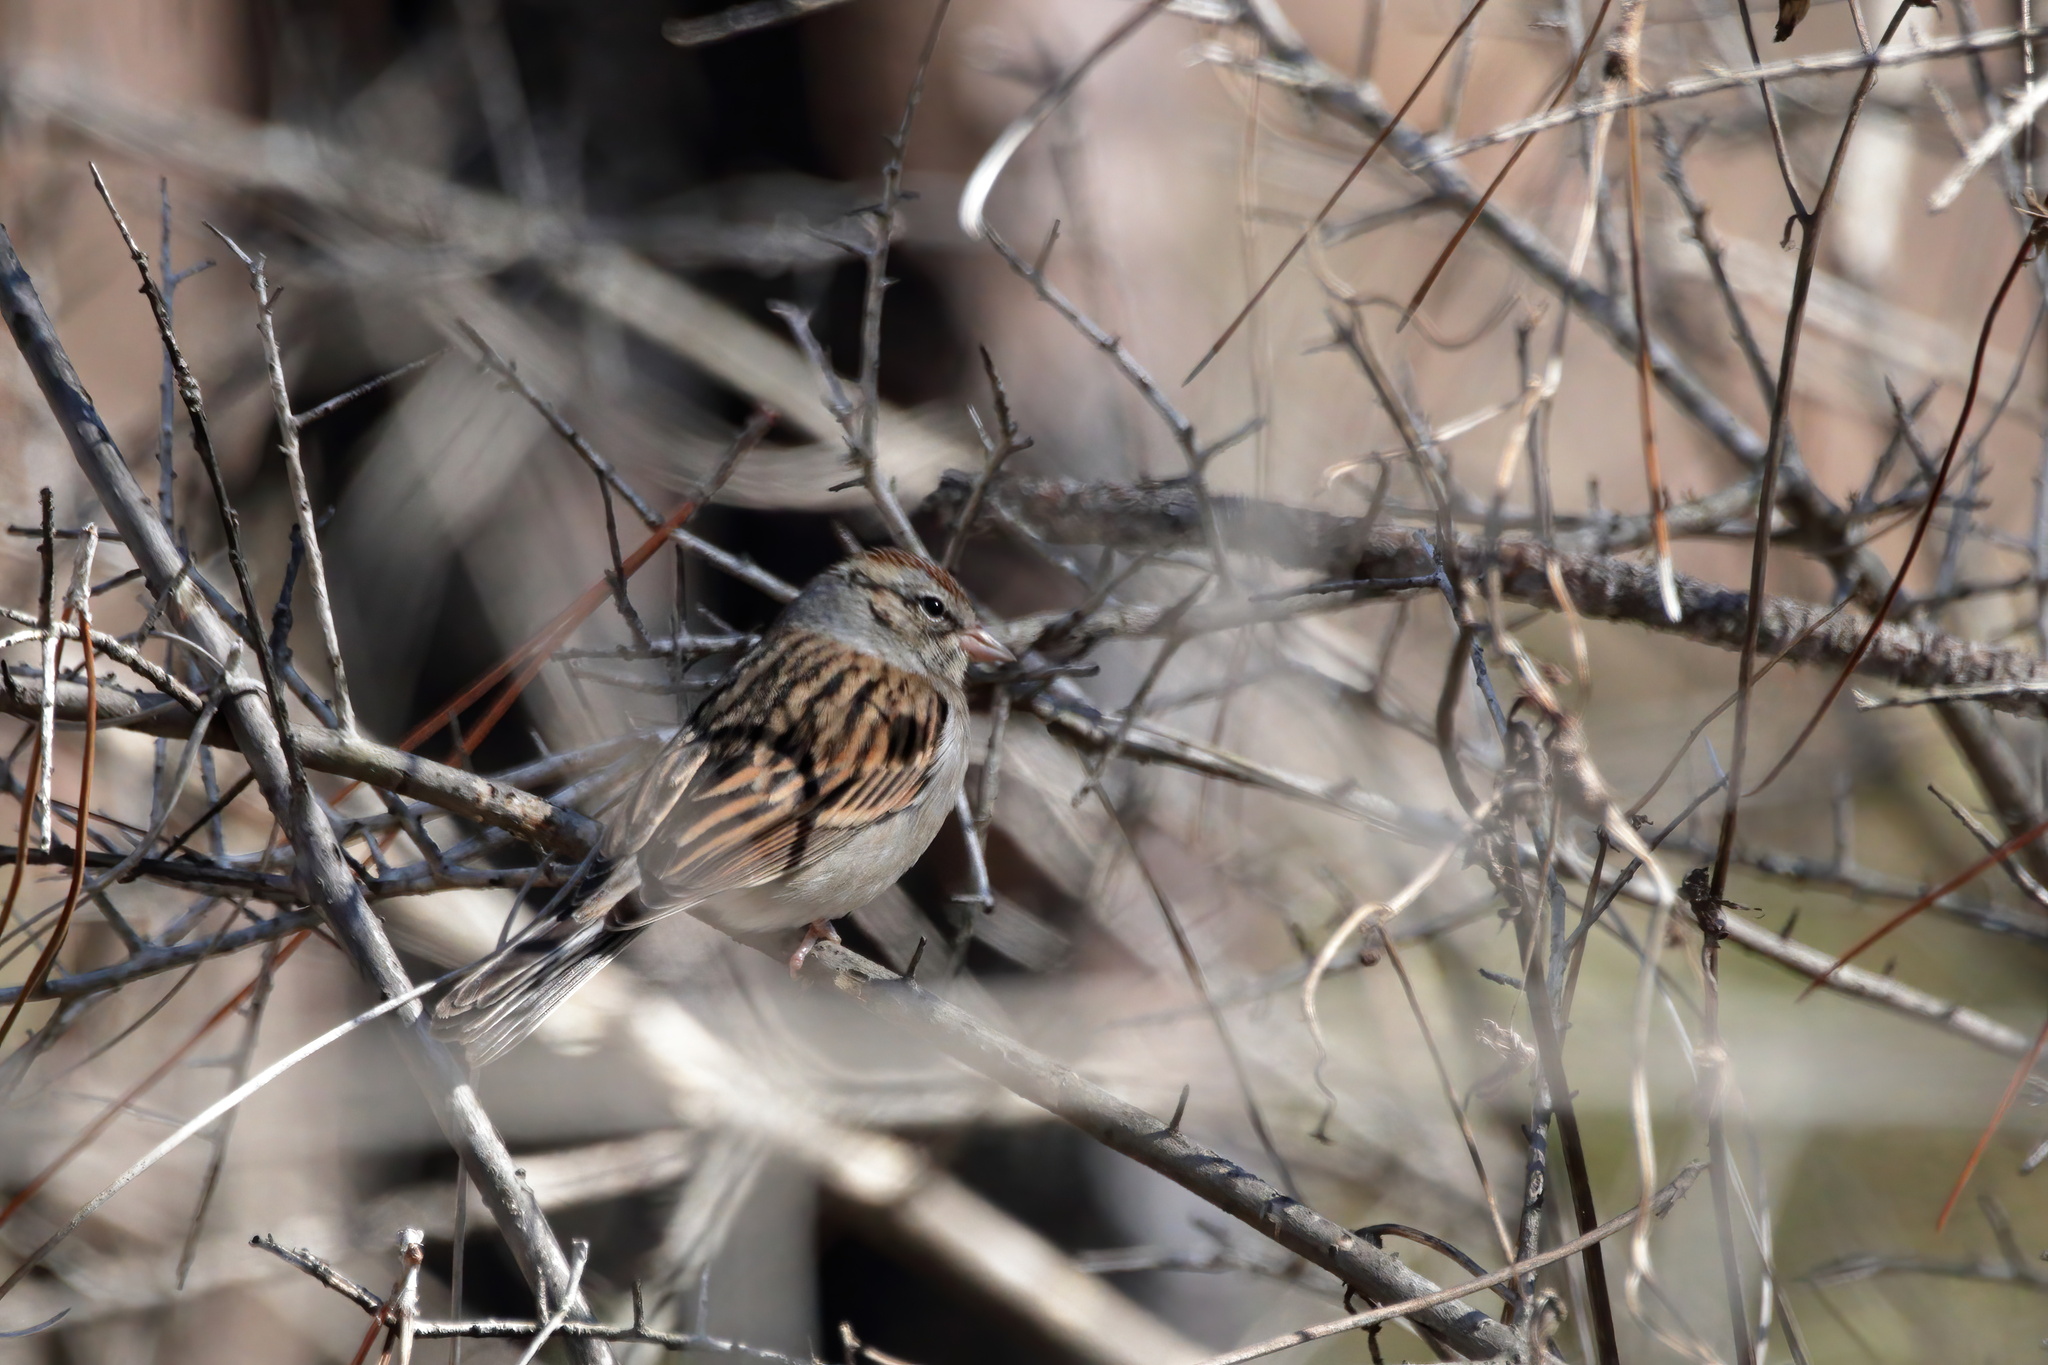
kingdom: Animalia
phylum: Chordata
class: Aves
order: Passeriformes
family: Passerellidae
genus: Spizella
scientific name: Spizella passerina
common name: Chipping sparrow
